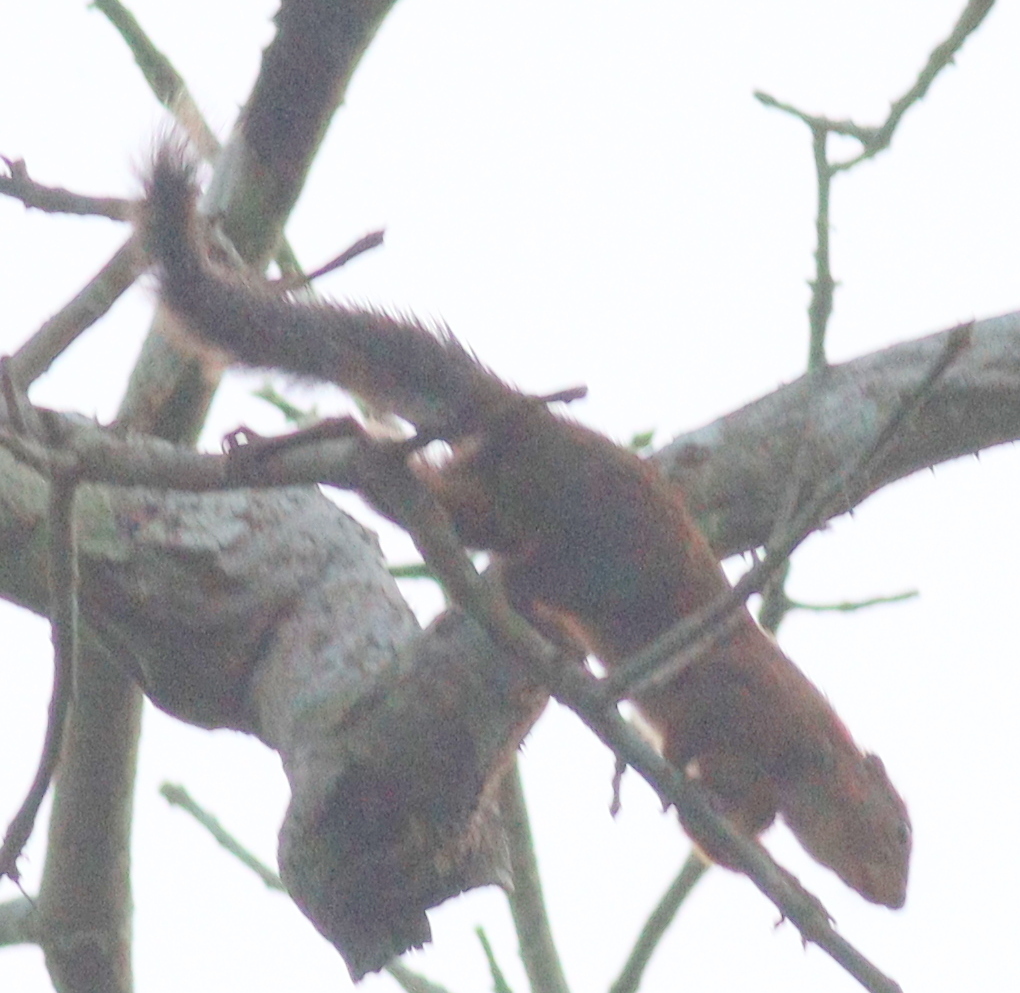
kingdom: Animalia
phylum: Chordata
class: Mammalia
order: Rodentia
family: Sciuridae
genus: Heliosciurus
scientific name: Heliosciurus rufobrachium
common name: Red-legged sun squirrel
